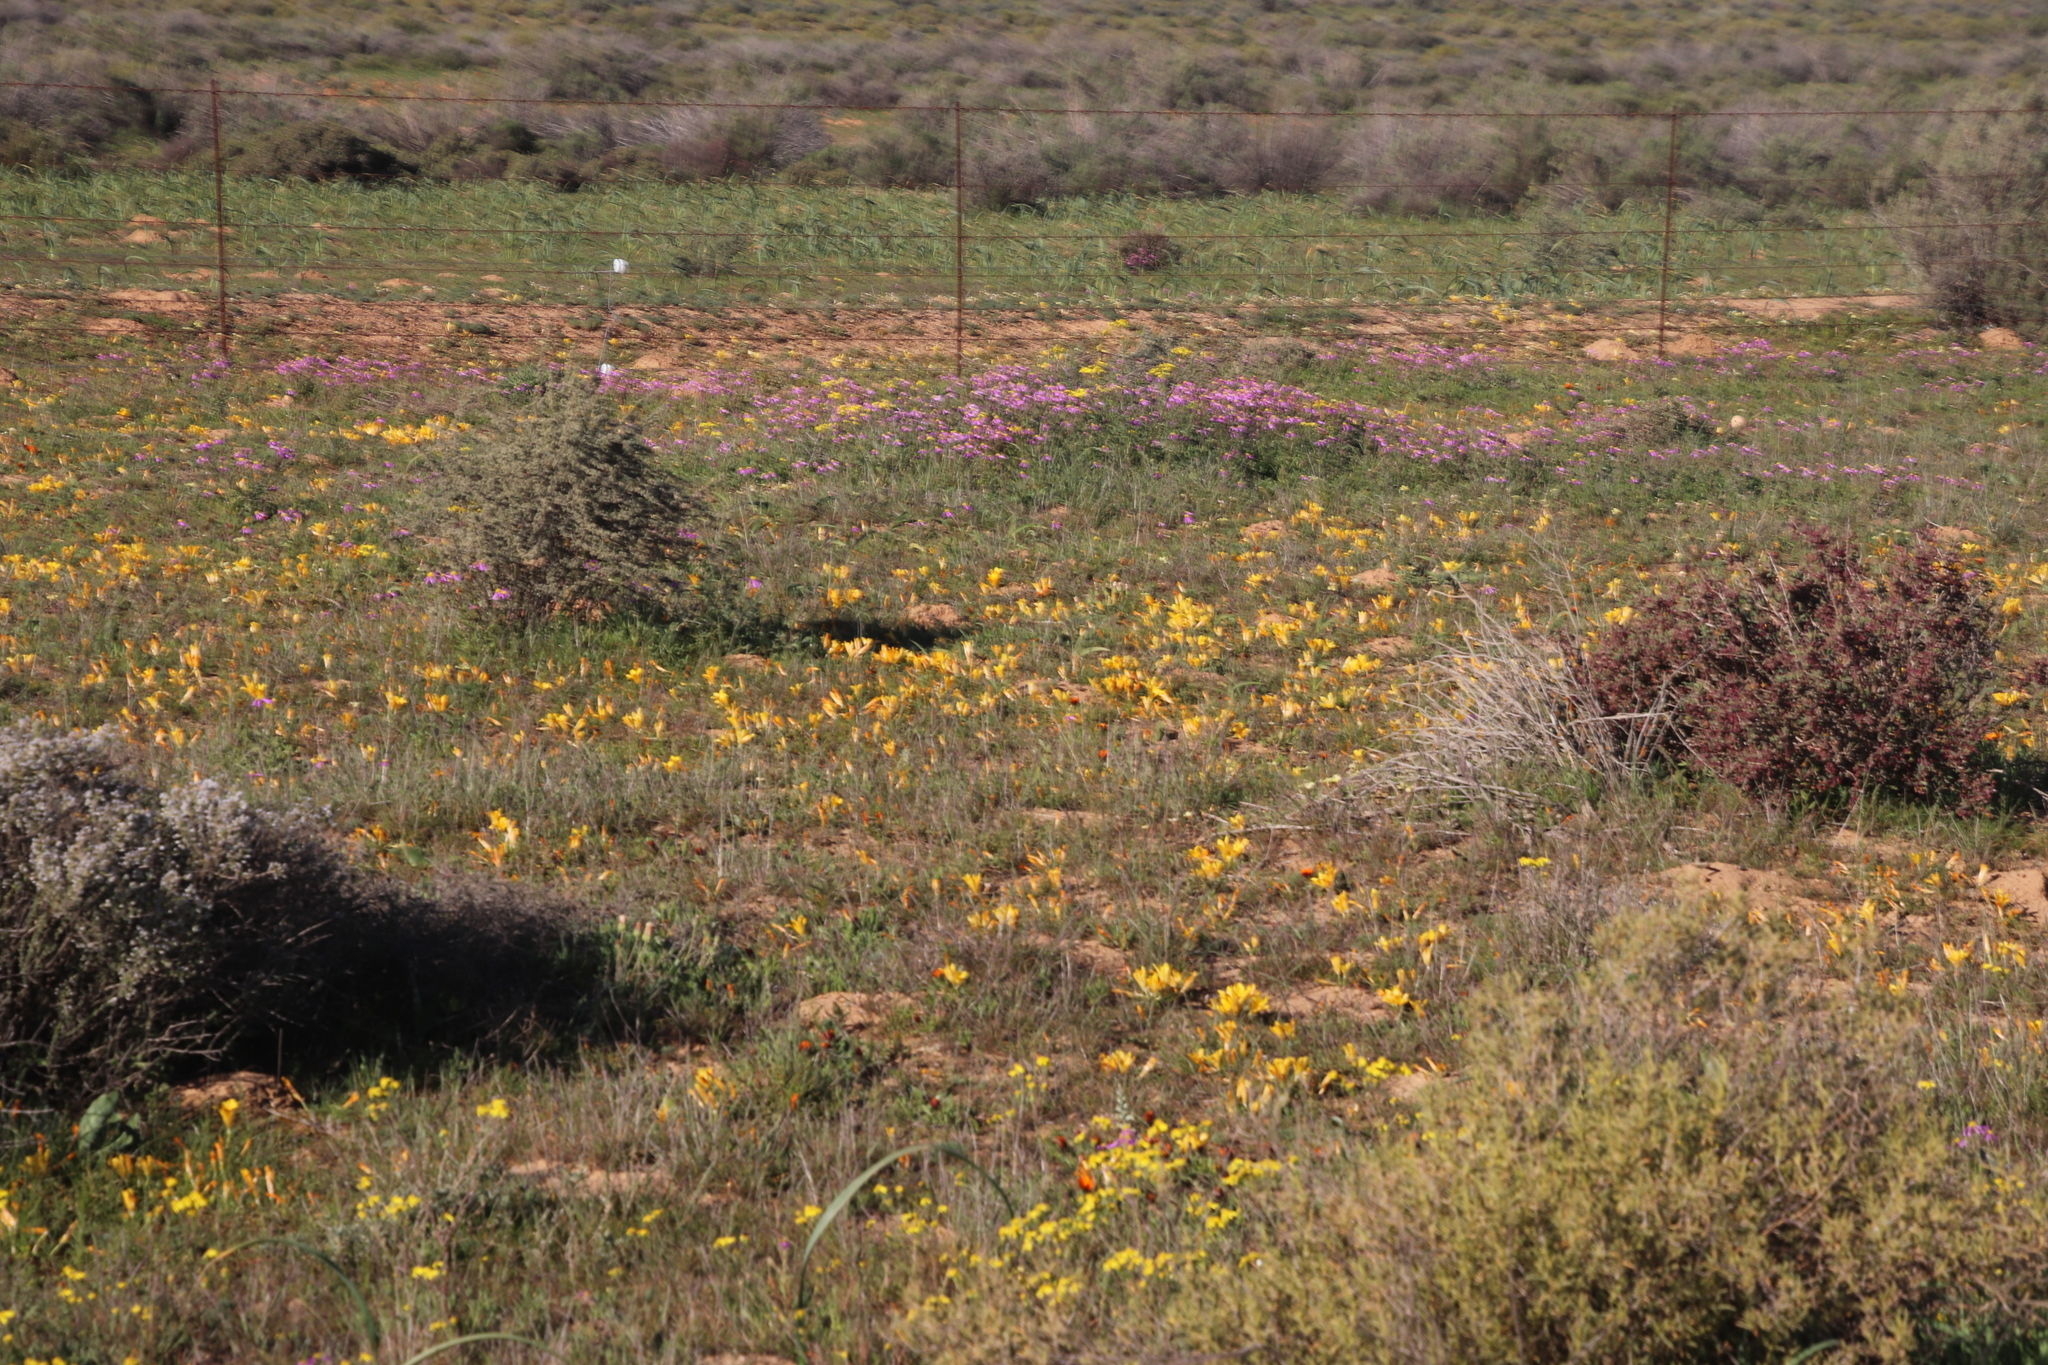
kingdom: Plantae
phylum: Tracheophyta
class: Liliopsida
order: Asparagales
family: Iridaceae
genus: Romulea
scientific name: Romulea tortuosa
